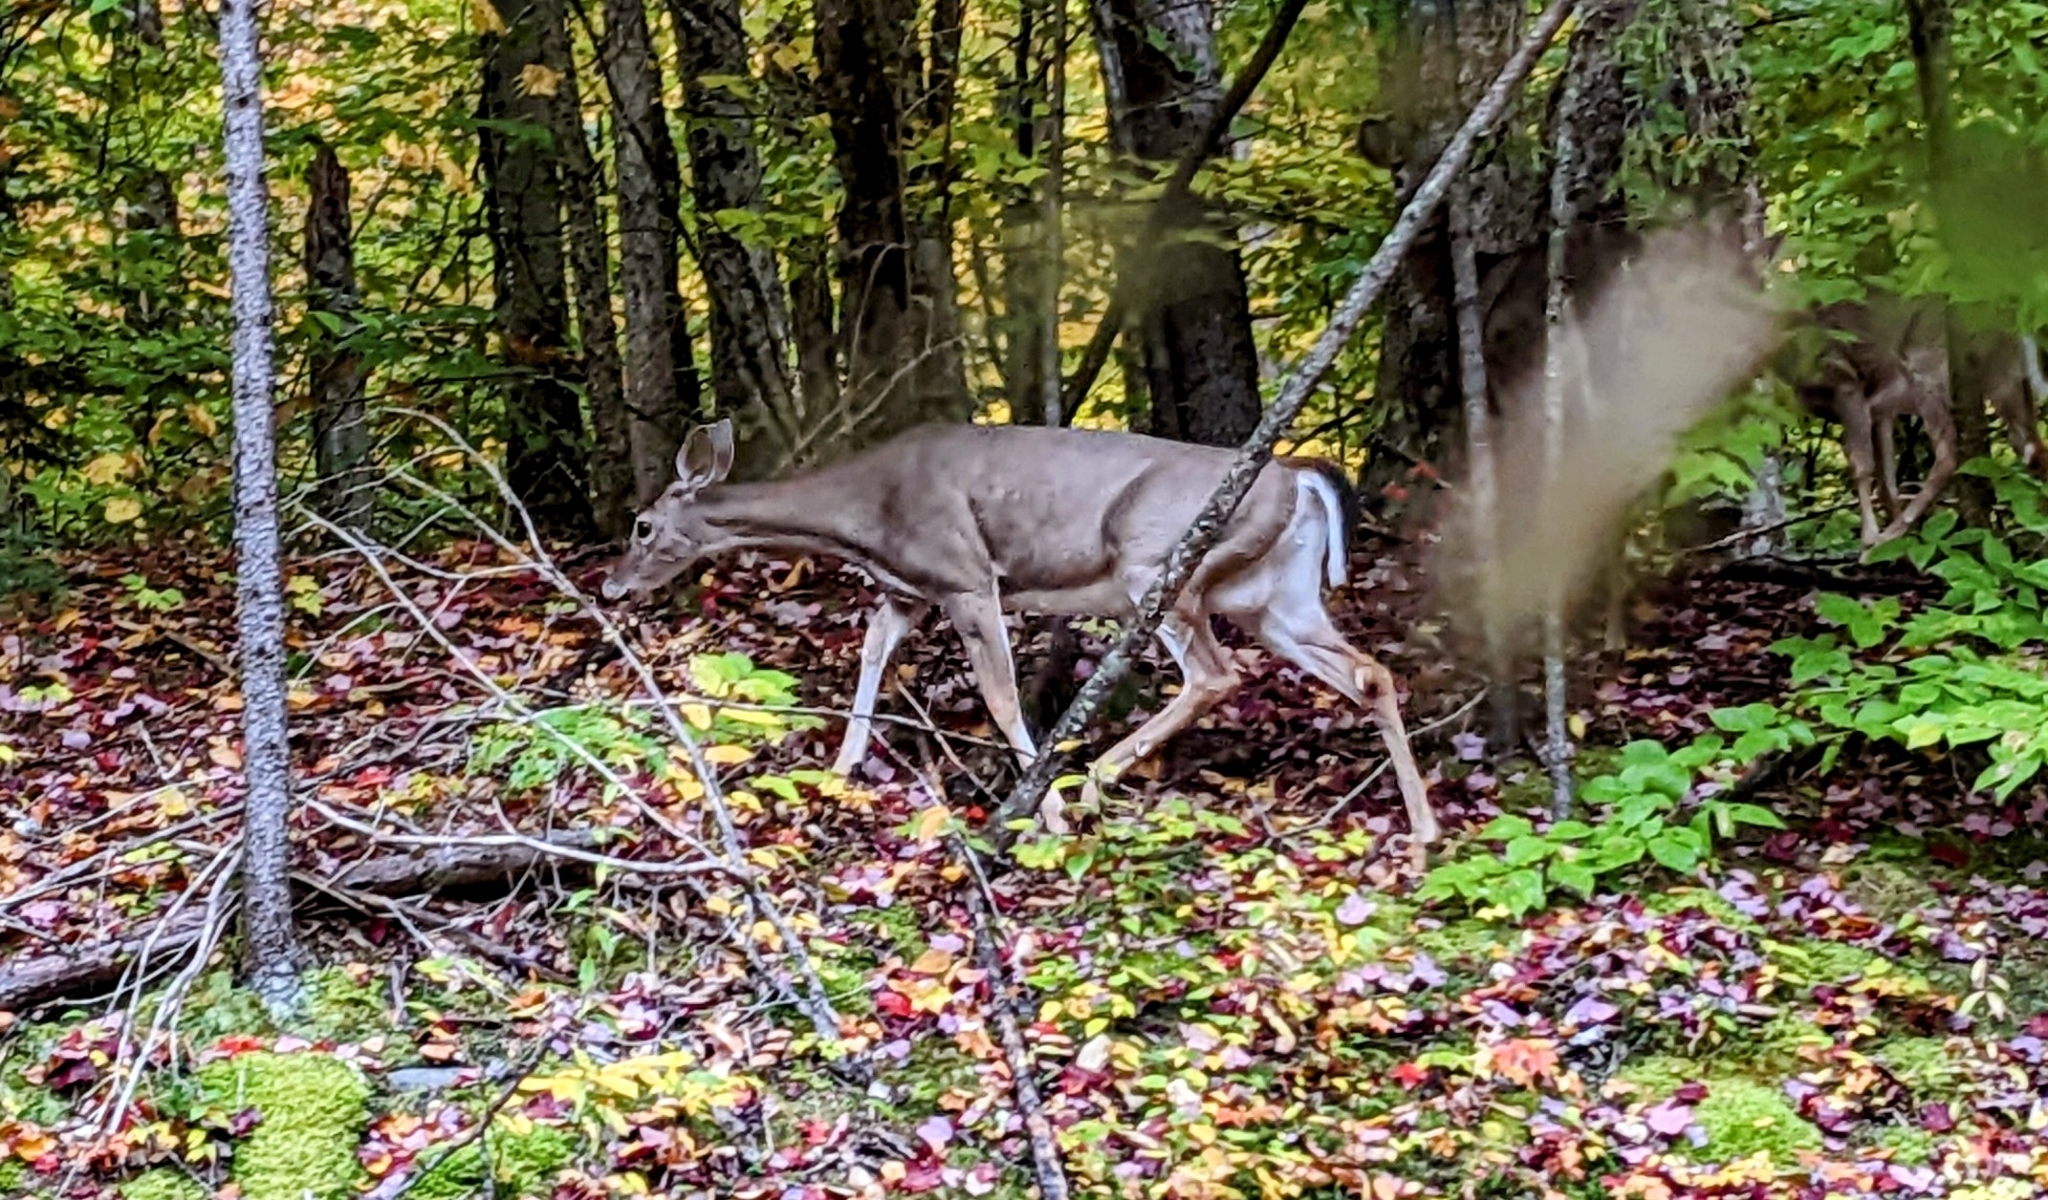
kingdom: Animalia
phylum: Chordata
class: Mammalia
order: Artiodactyla
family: Cervidae
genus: Odocoileus
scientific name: Odocoileus virginianus
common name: White-tailed deer
